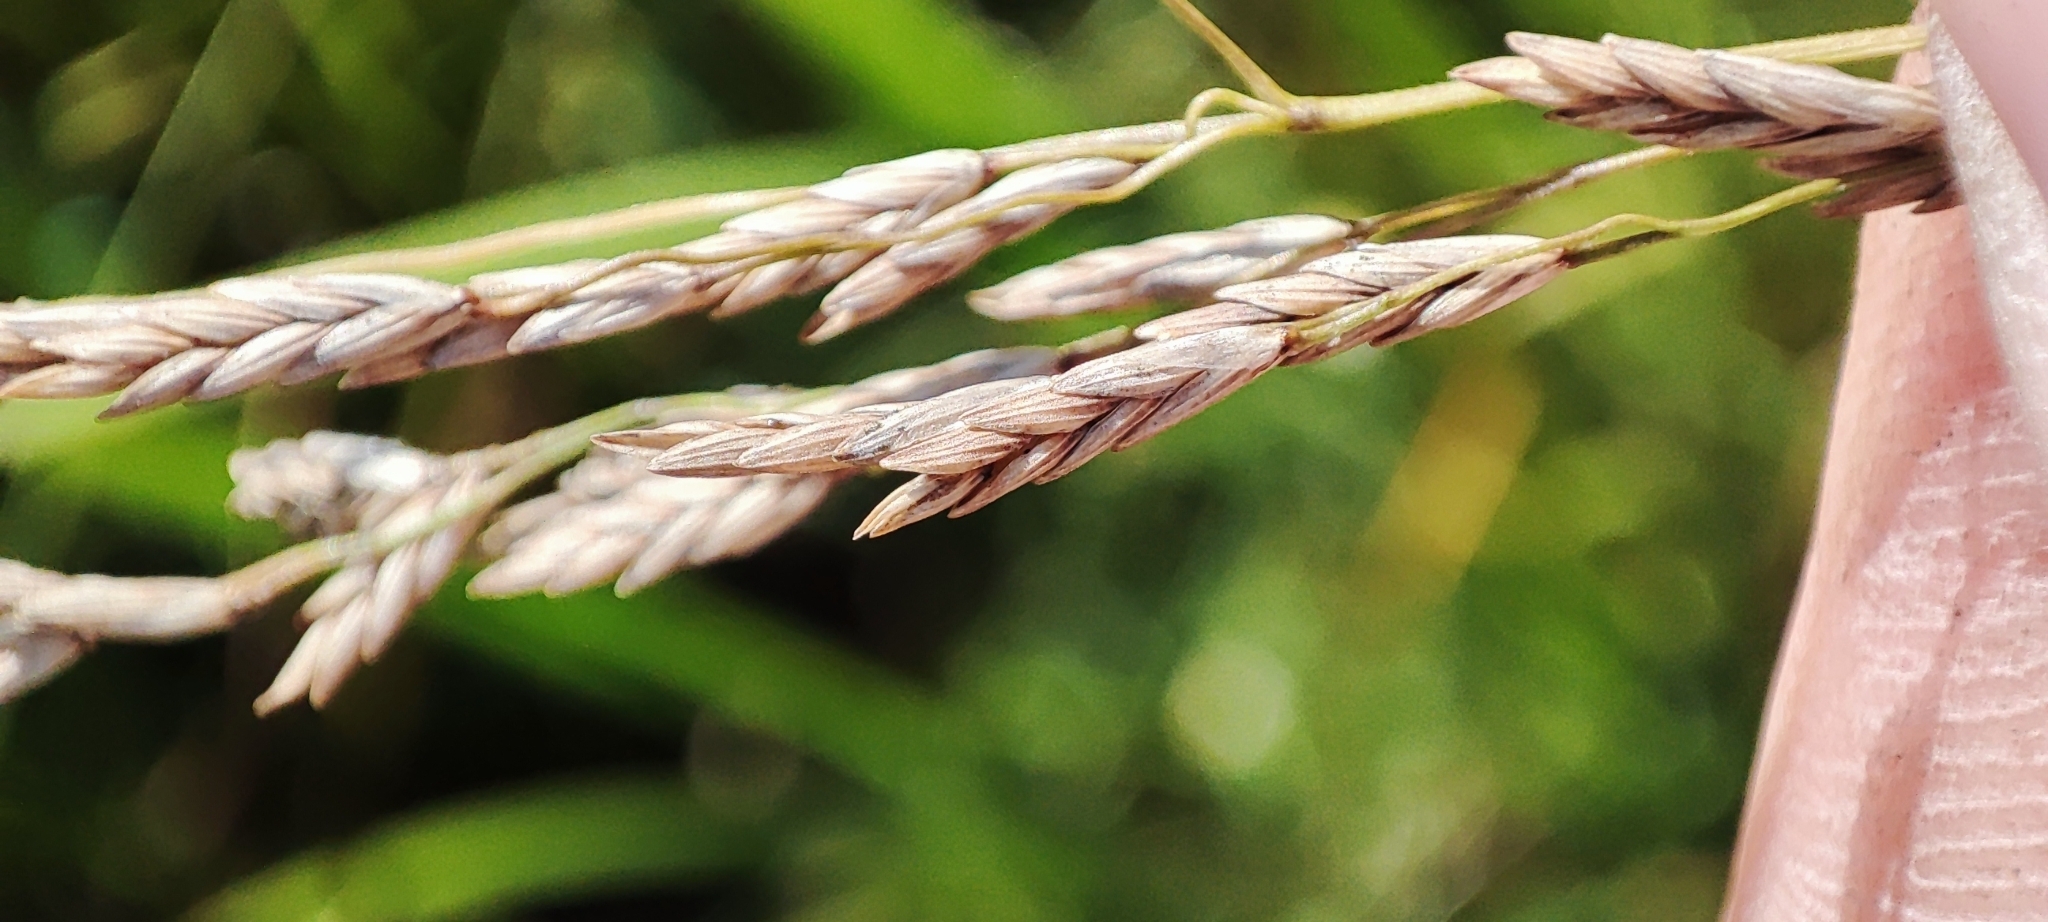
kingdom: Plantae
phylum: Tracheophyta
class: Liliopsida
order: Poales
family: Poaceae
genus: Glyceria
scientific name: Glyceria maxima
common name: Reed mannagrass
